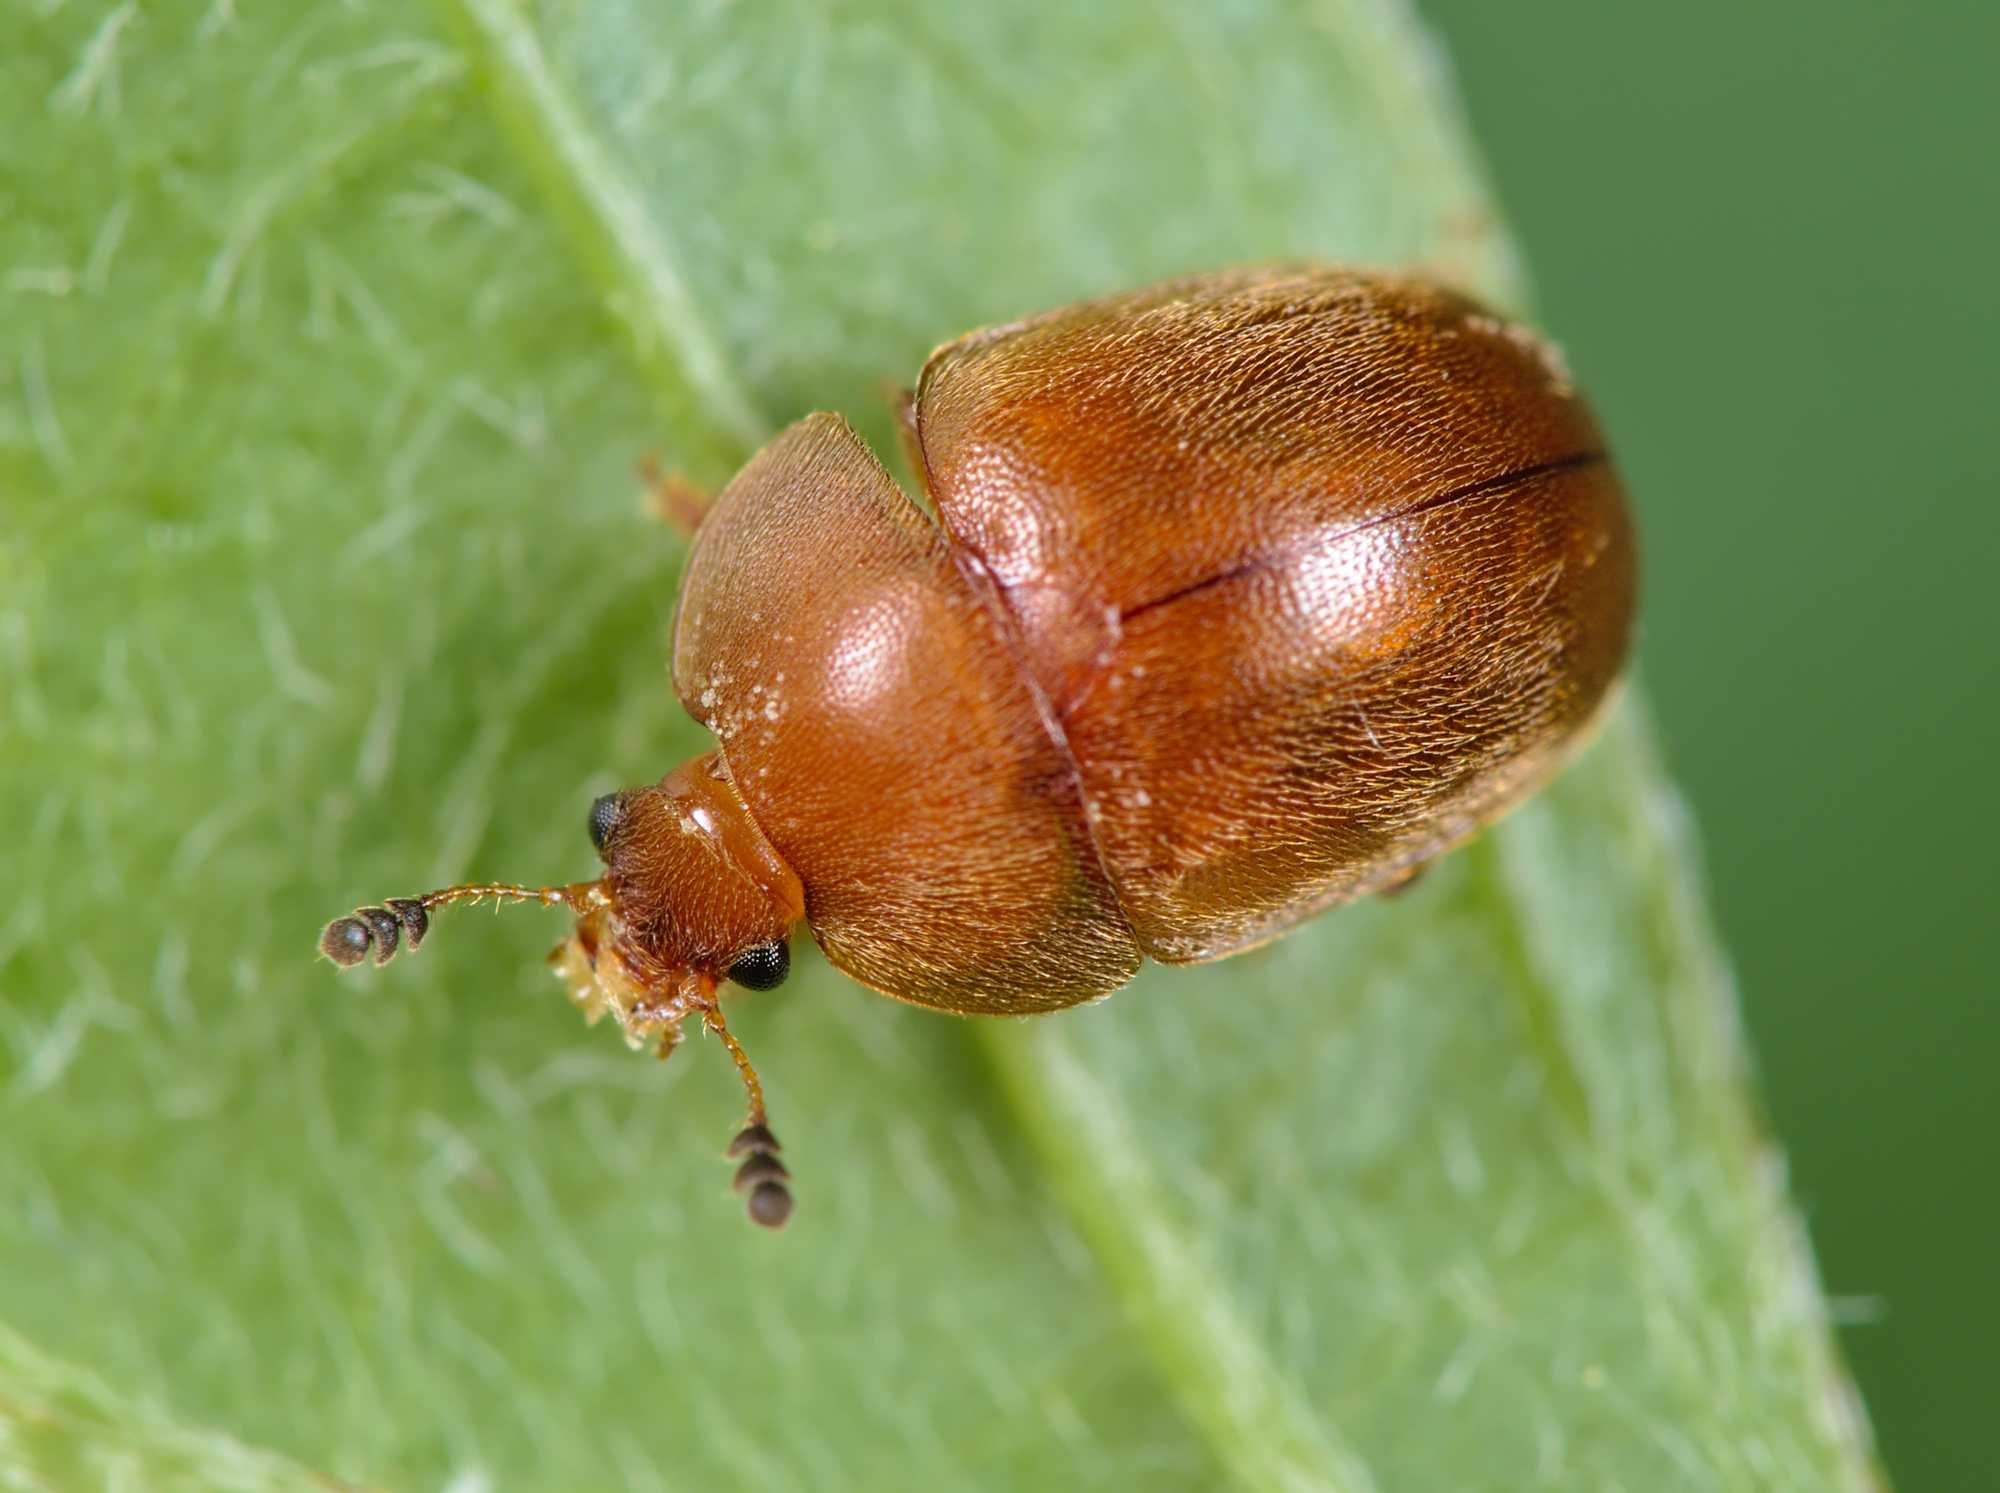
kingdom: Animalia
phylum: Arthropoda
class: Insecta
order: Coleoptera
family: Nitidulidae
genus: Cychramus
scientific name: Cychramus luteus
